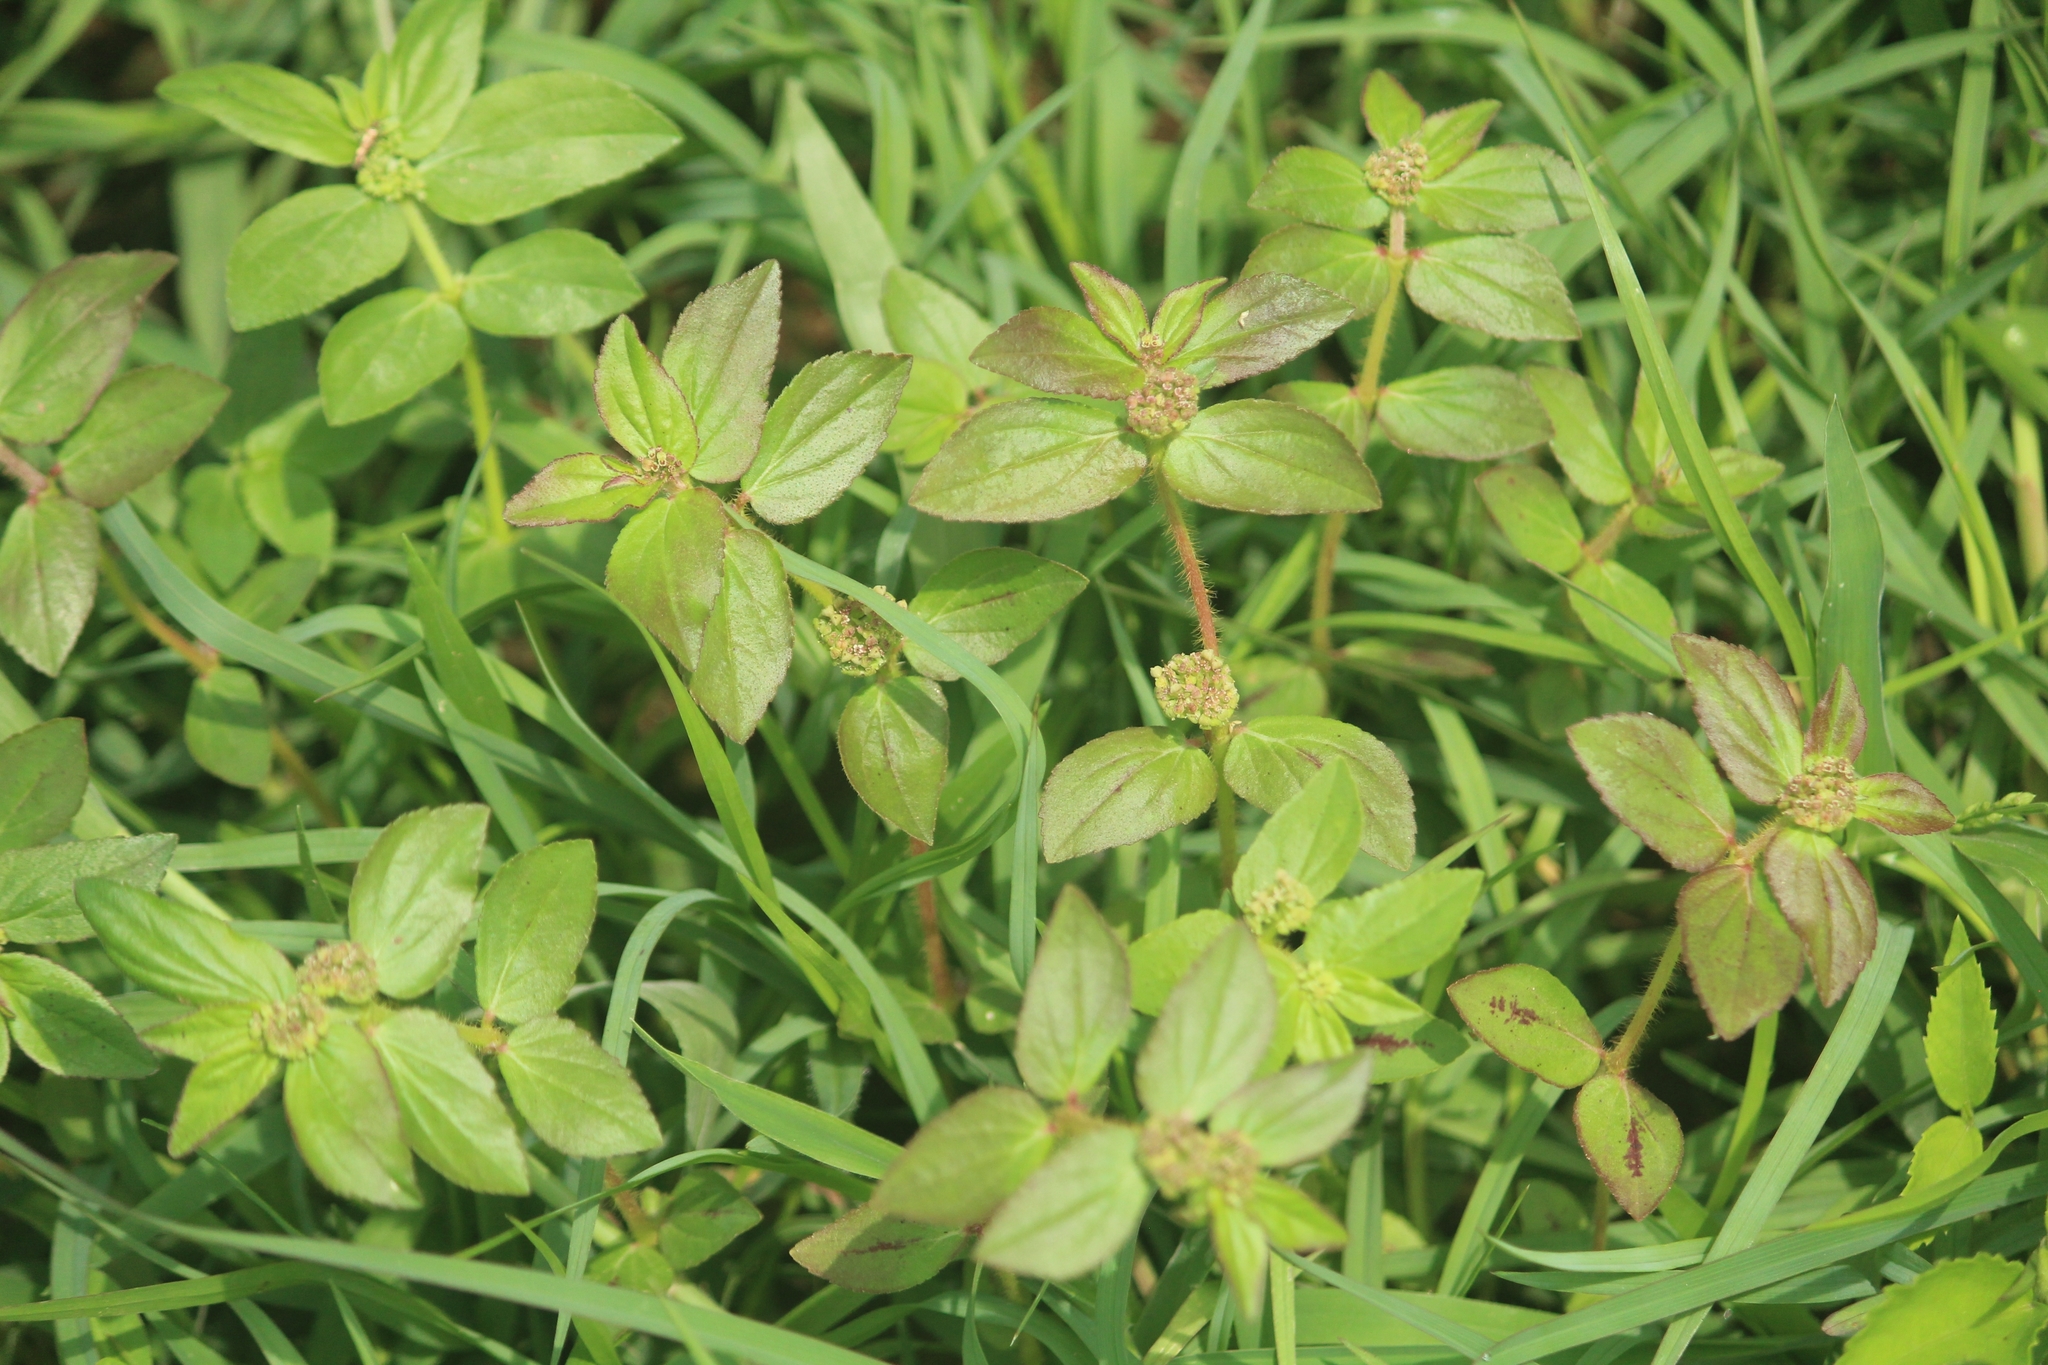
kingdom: Plantae
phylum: Tracheophyta
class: Magnoliopsida
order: Malpighiales
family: Euphorbiaceae
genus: Euphorbia
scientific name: Euphorbia hirta
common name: Pillpod sandmat
